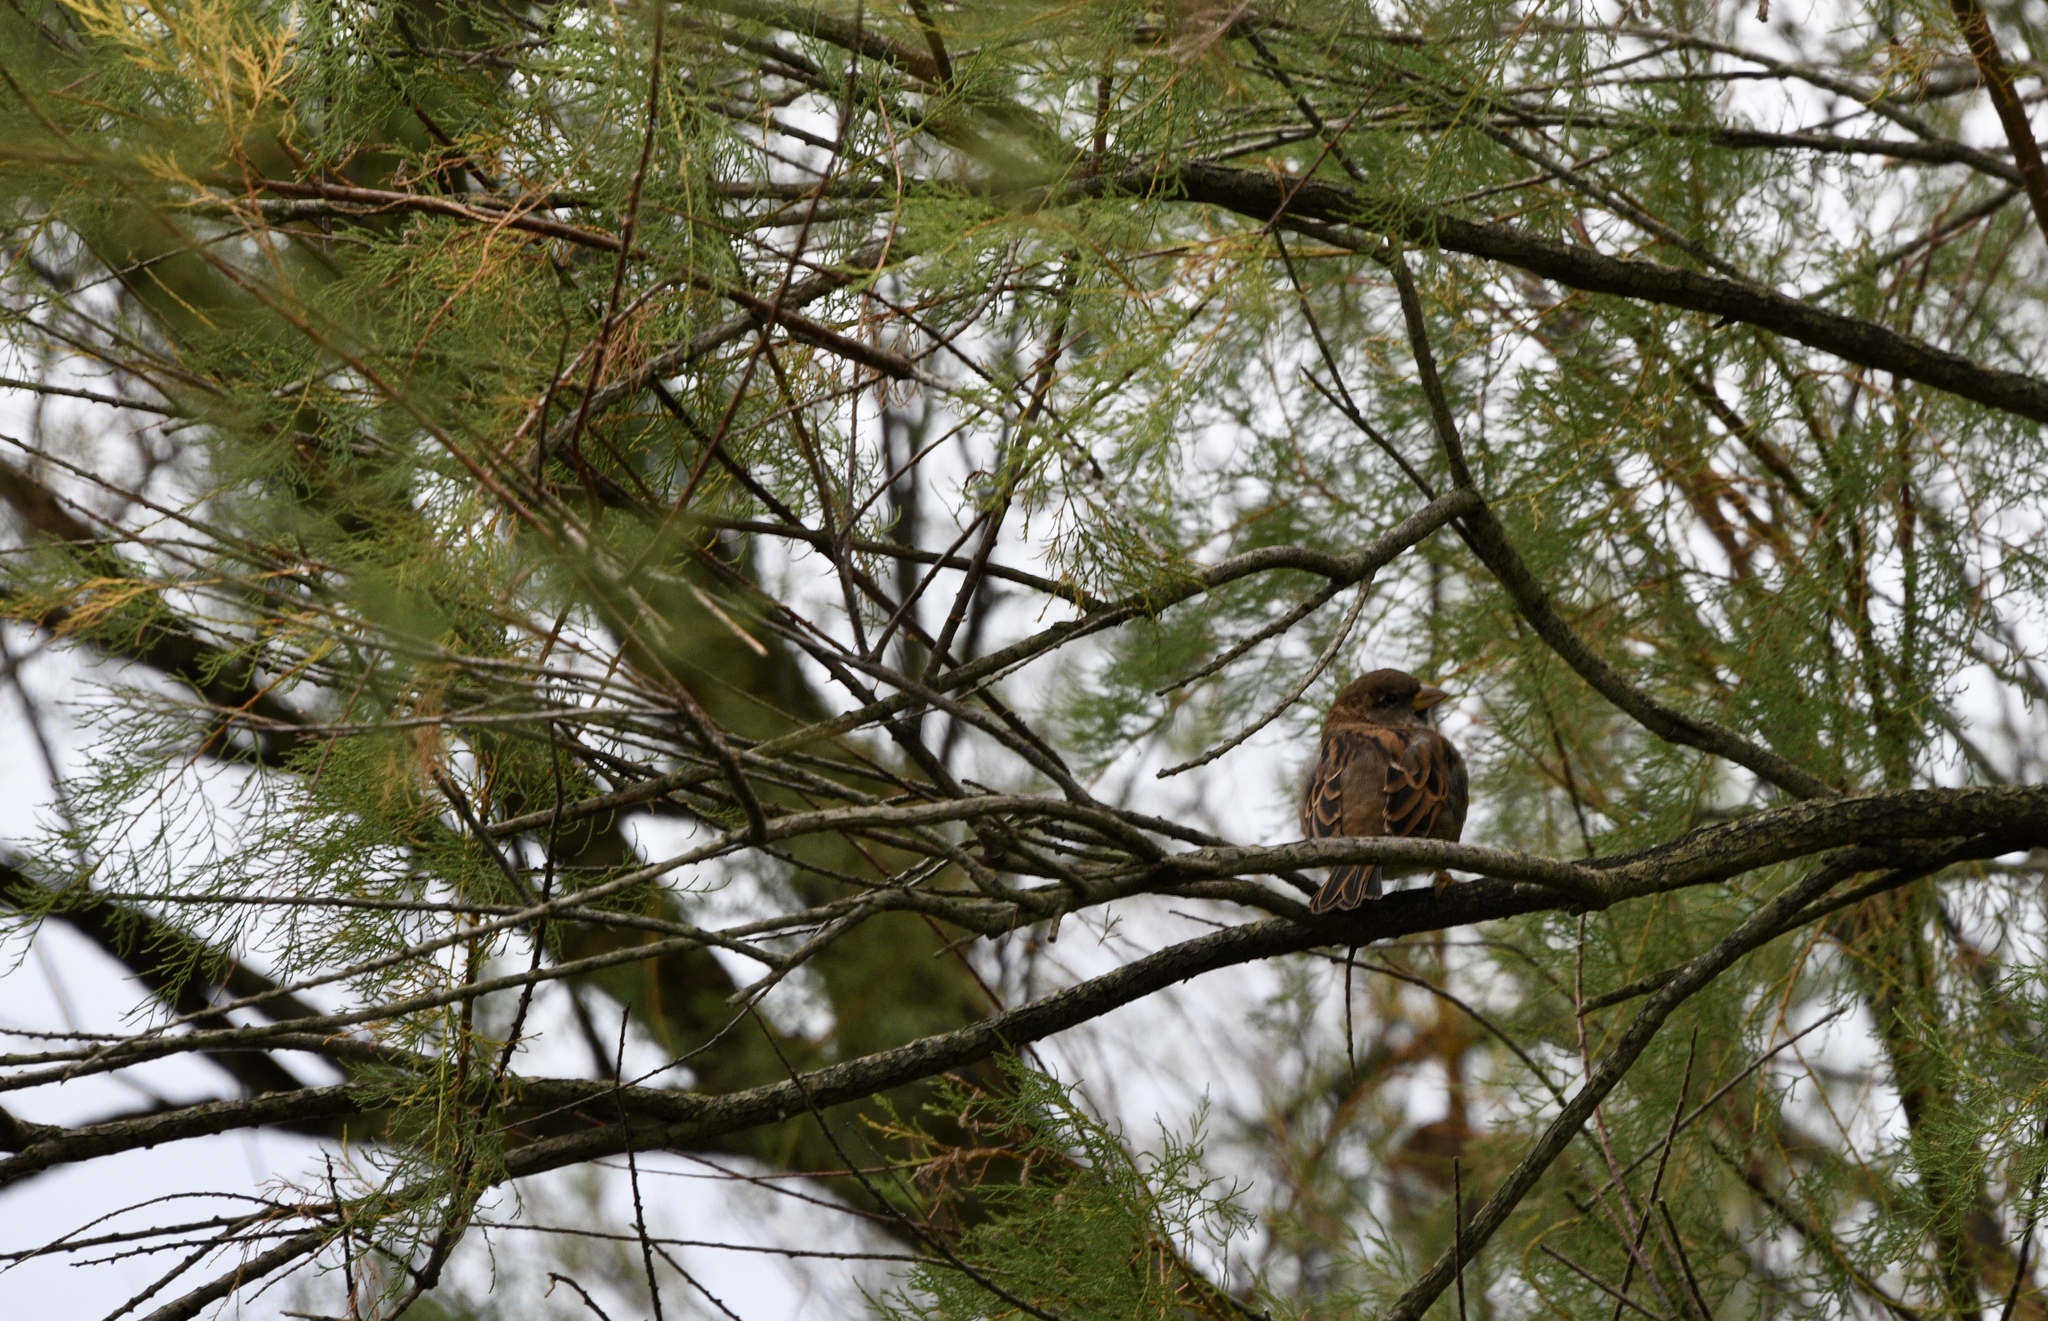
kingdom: Animalia
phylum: Chordata
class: Aves
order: Passeriformes
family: Passeridae
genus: Passer
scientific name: Passer domesticus
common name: House sparrow
